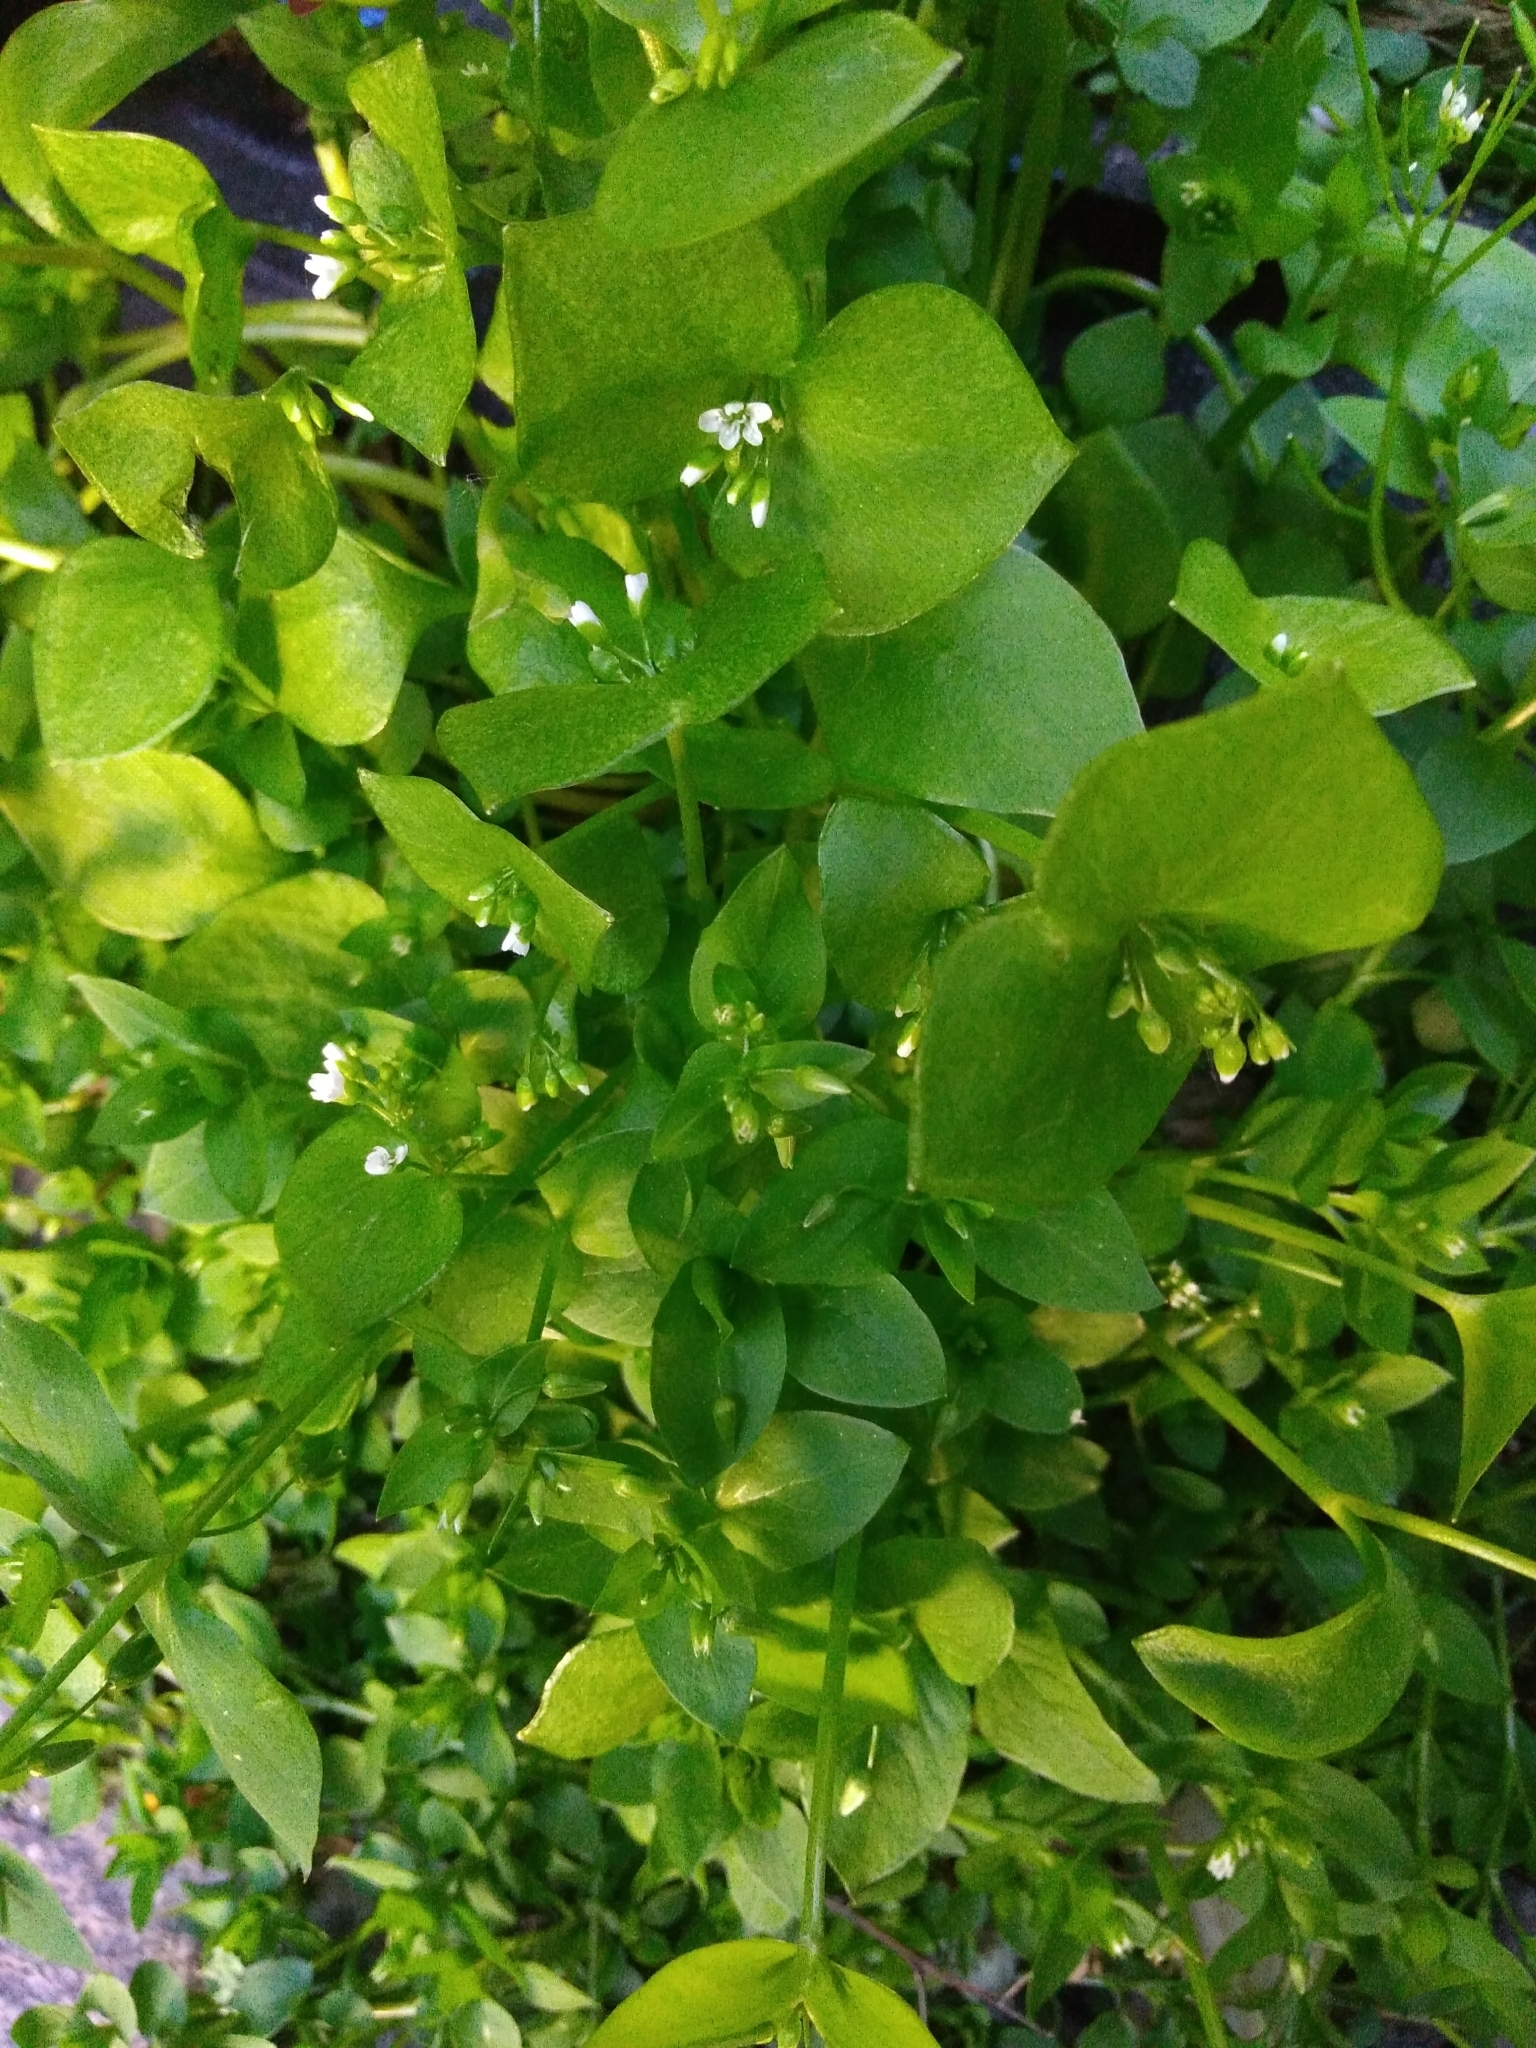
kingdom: Plantae
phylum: Tracheophyta
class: Magnoliopsida
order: Caryophyllales
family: Montiaceae
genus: Claytonia
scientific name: Claytonia perfoliata
